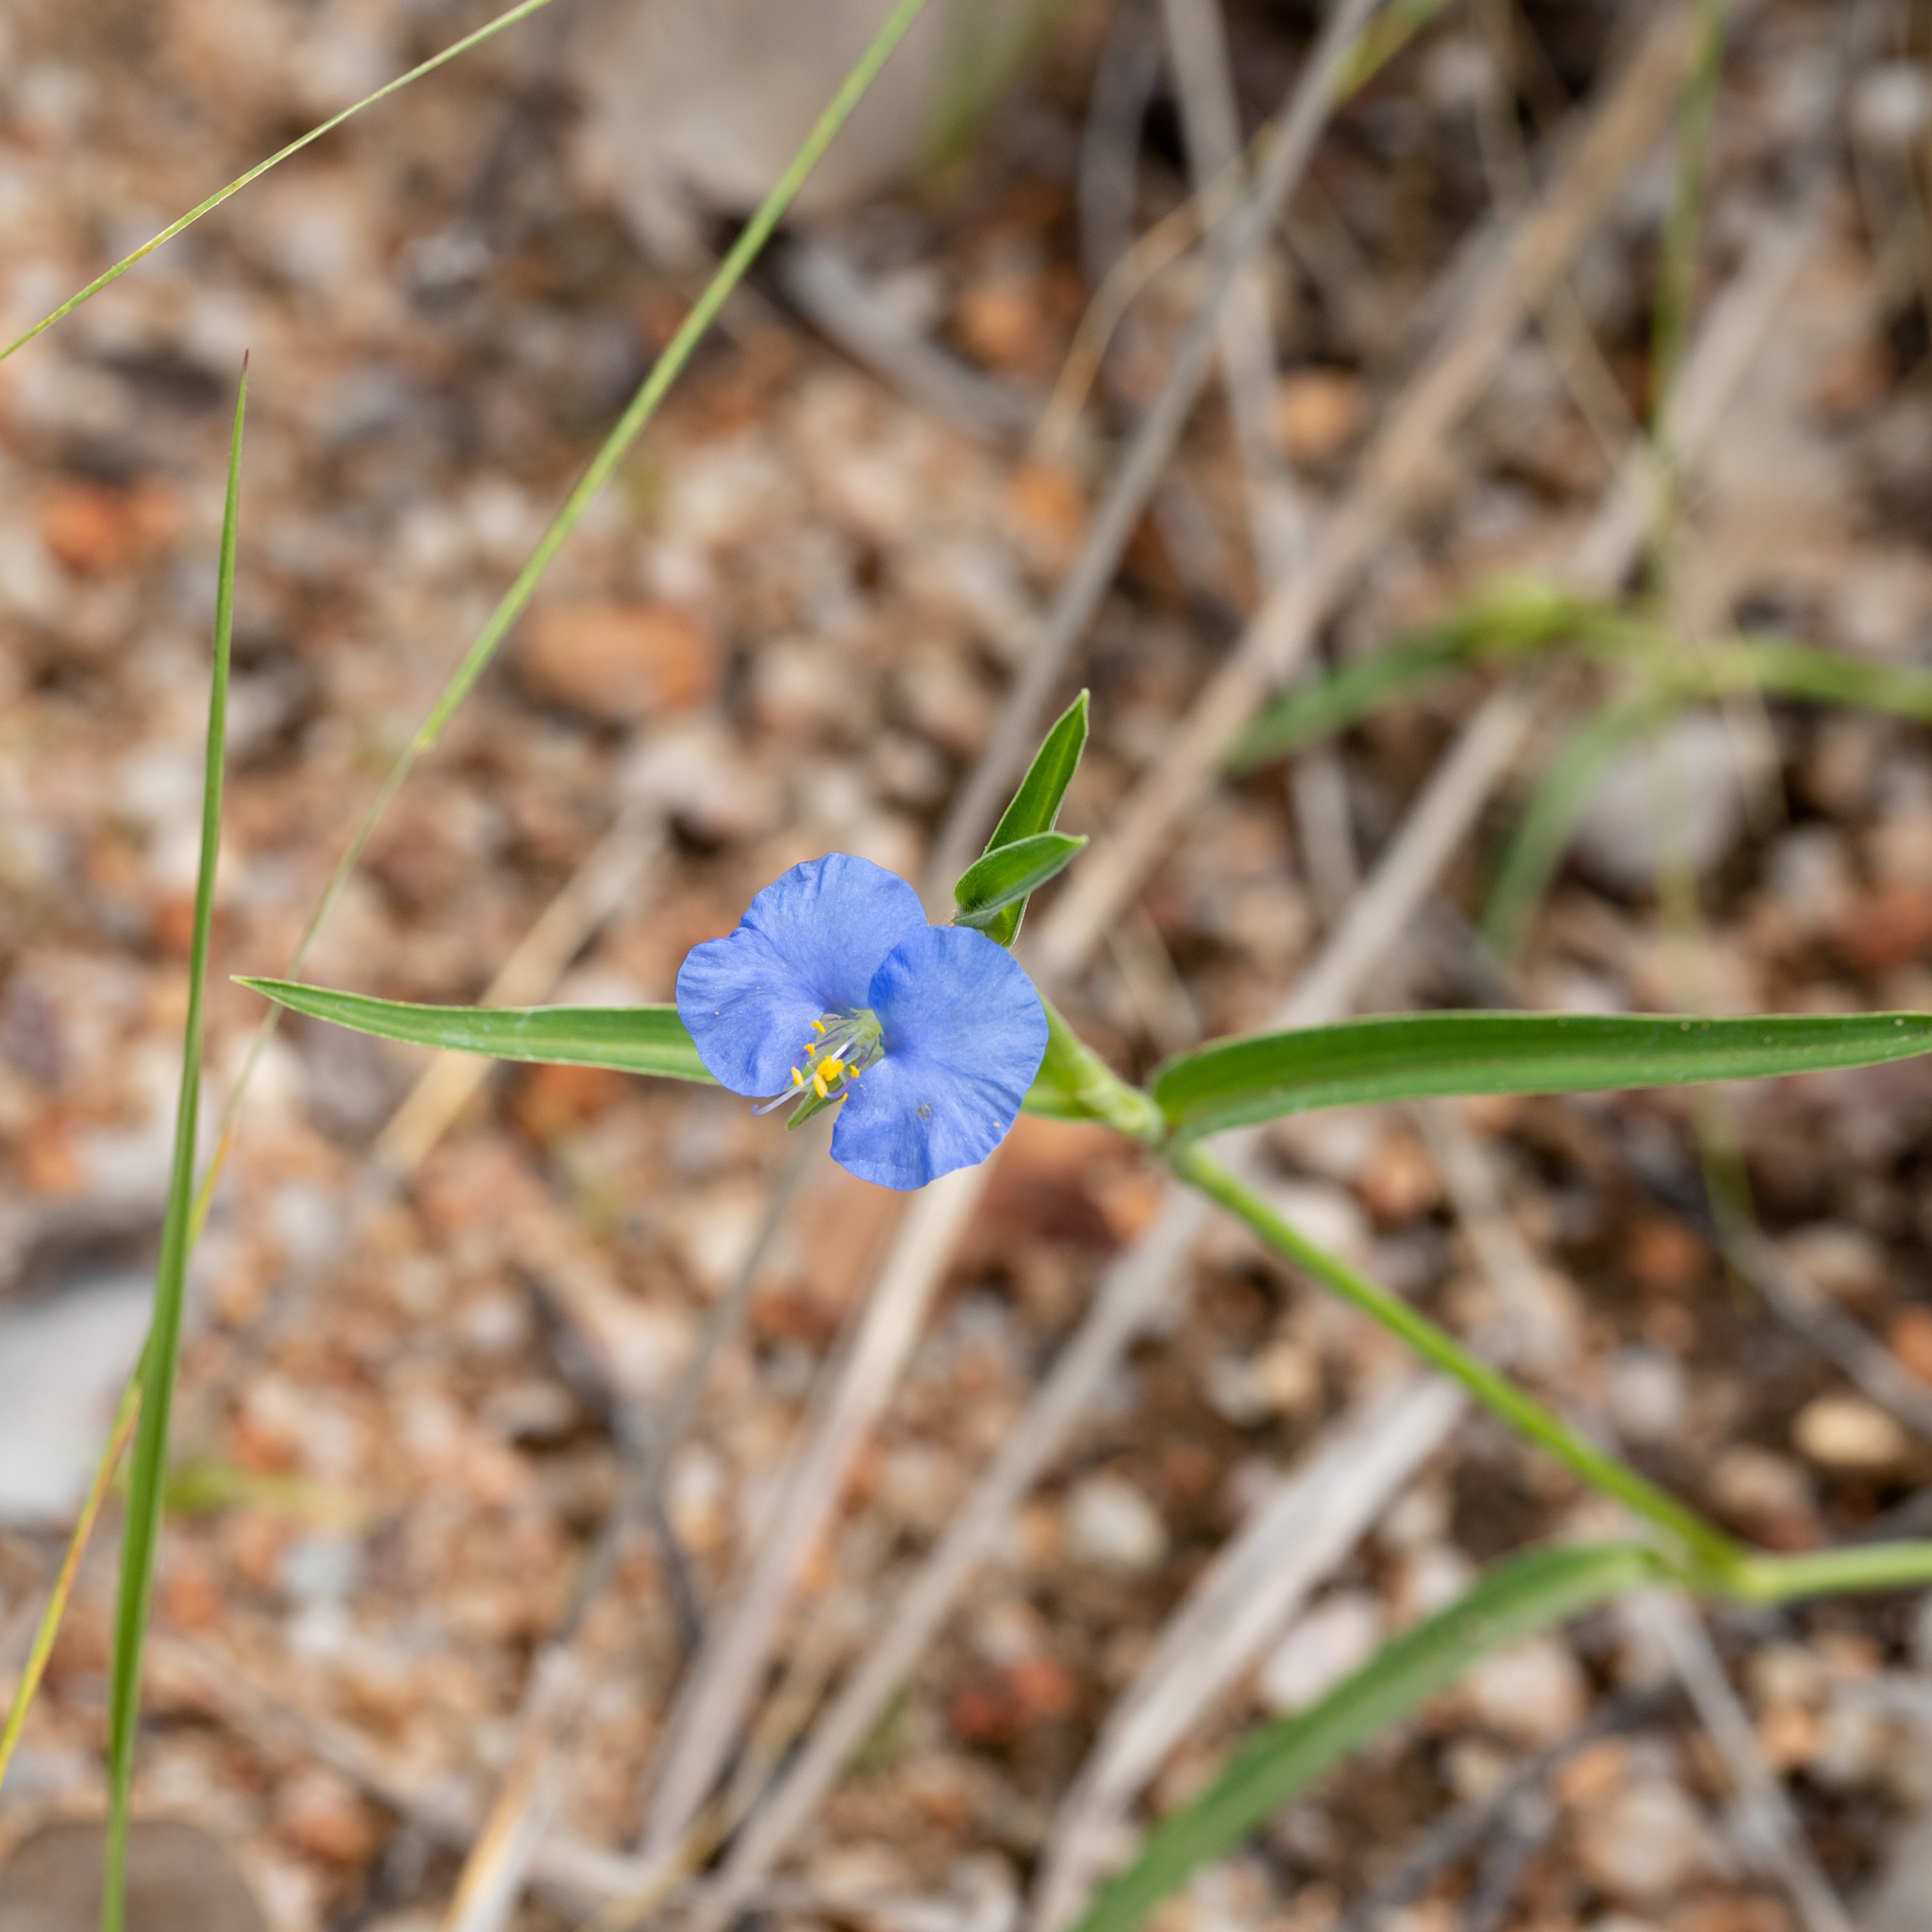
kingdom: Plantae
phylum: Tracheophyta
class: Liliopsida
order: Commelinales
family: Commelinaceae
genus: Commelina
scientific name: Commelina ensifolia
